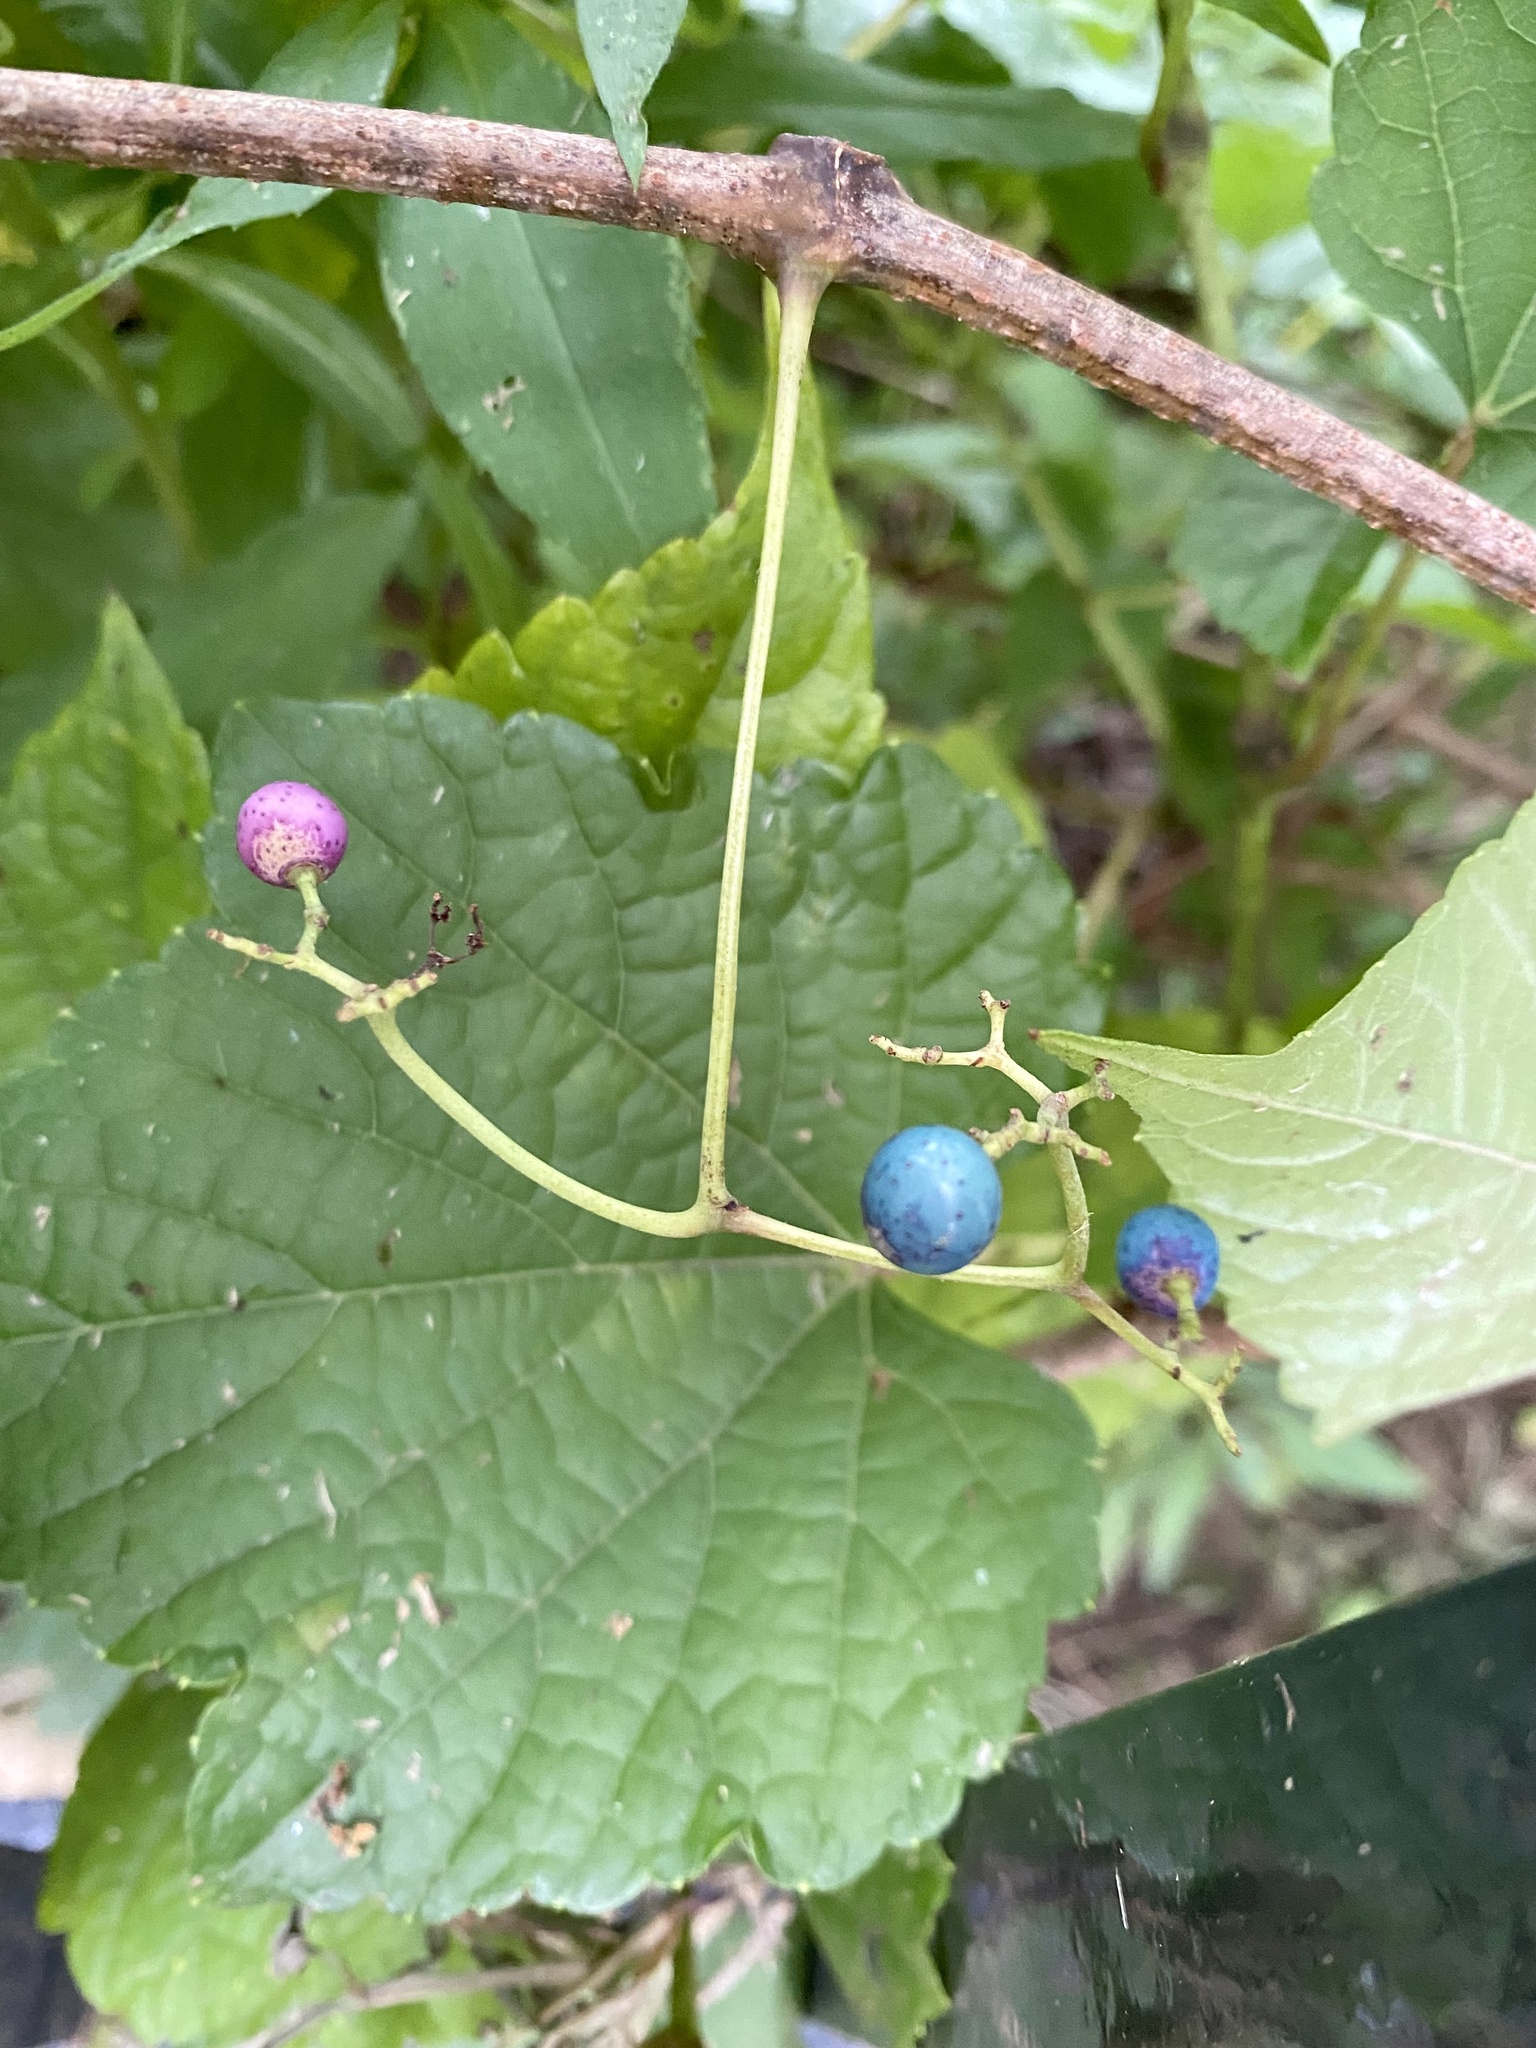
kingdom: Plantae
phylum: Tracheophyta
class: Magnoliopsida
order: Vitales
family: Vitaceae
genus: Ampelopsis
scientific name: Ampelopsis glandulosa
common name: Amur peppervine
